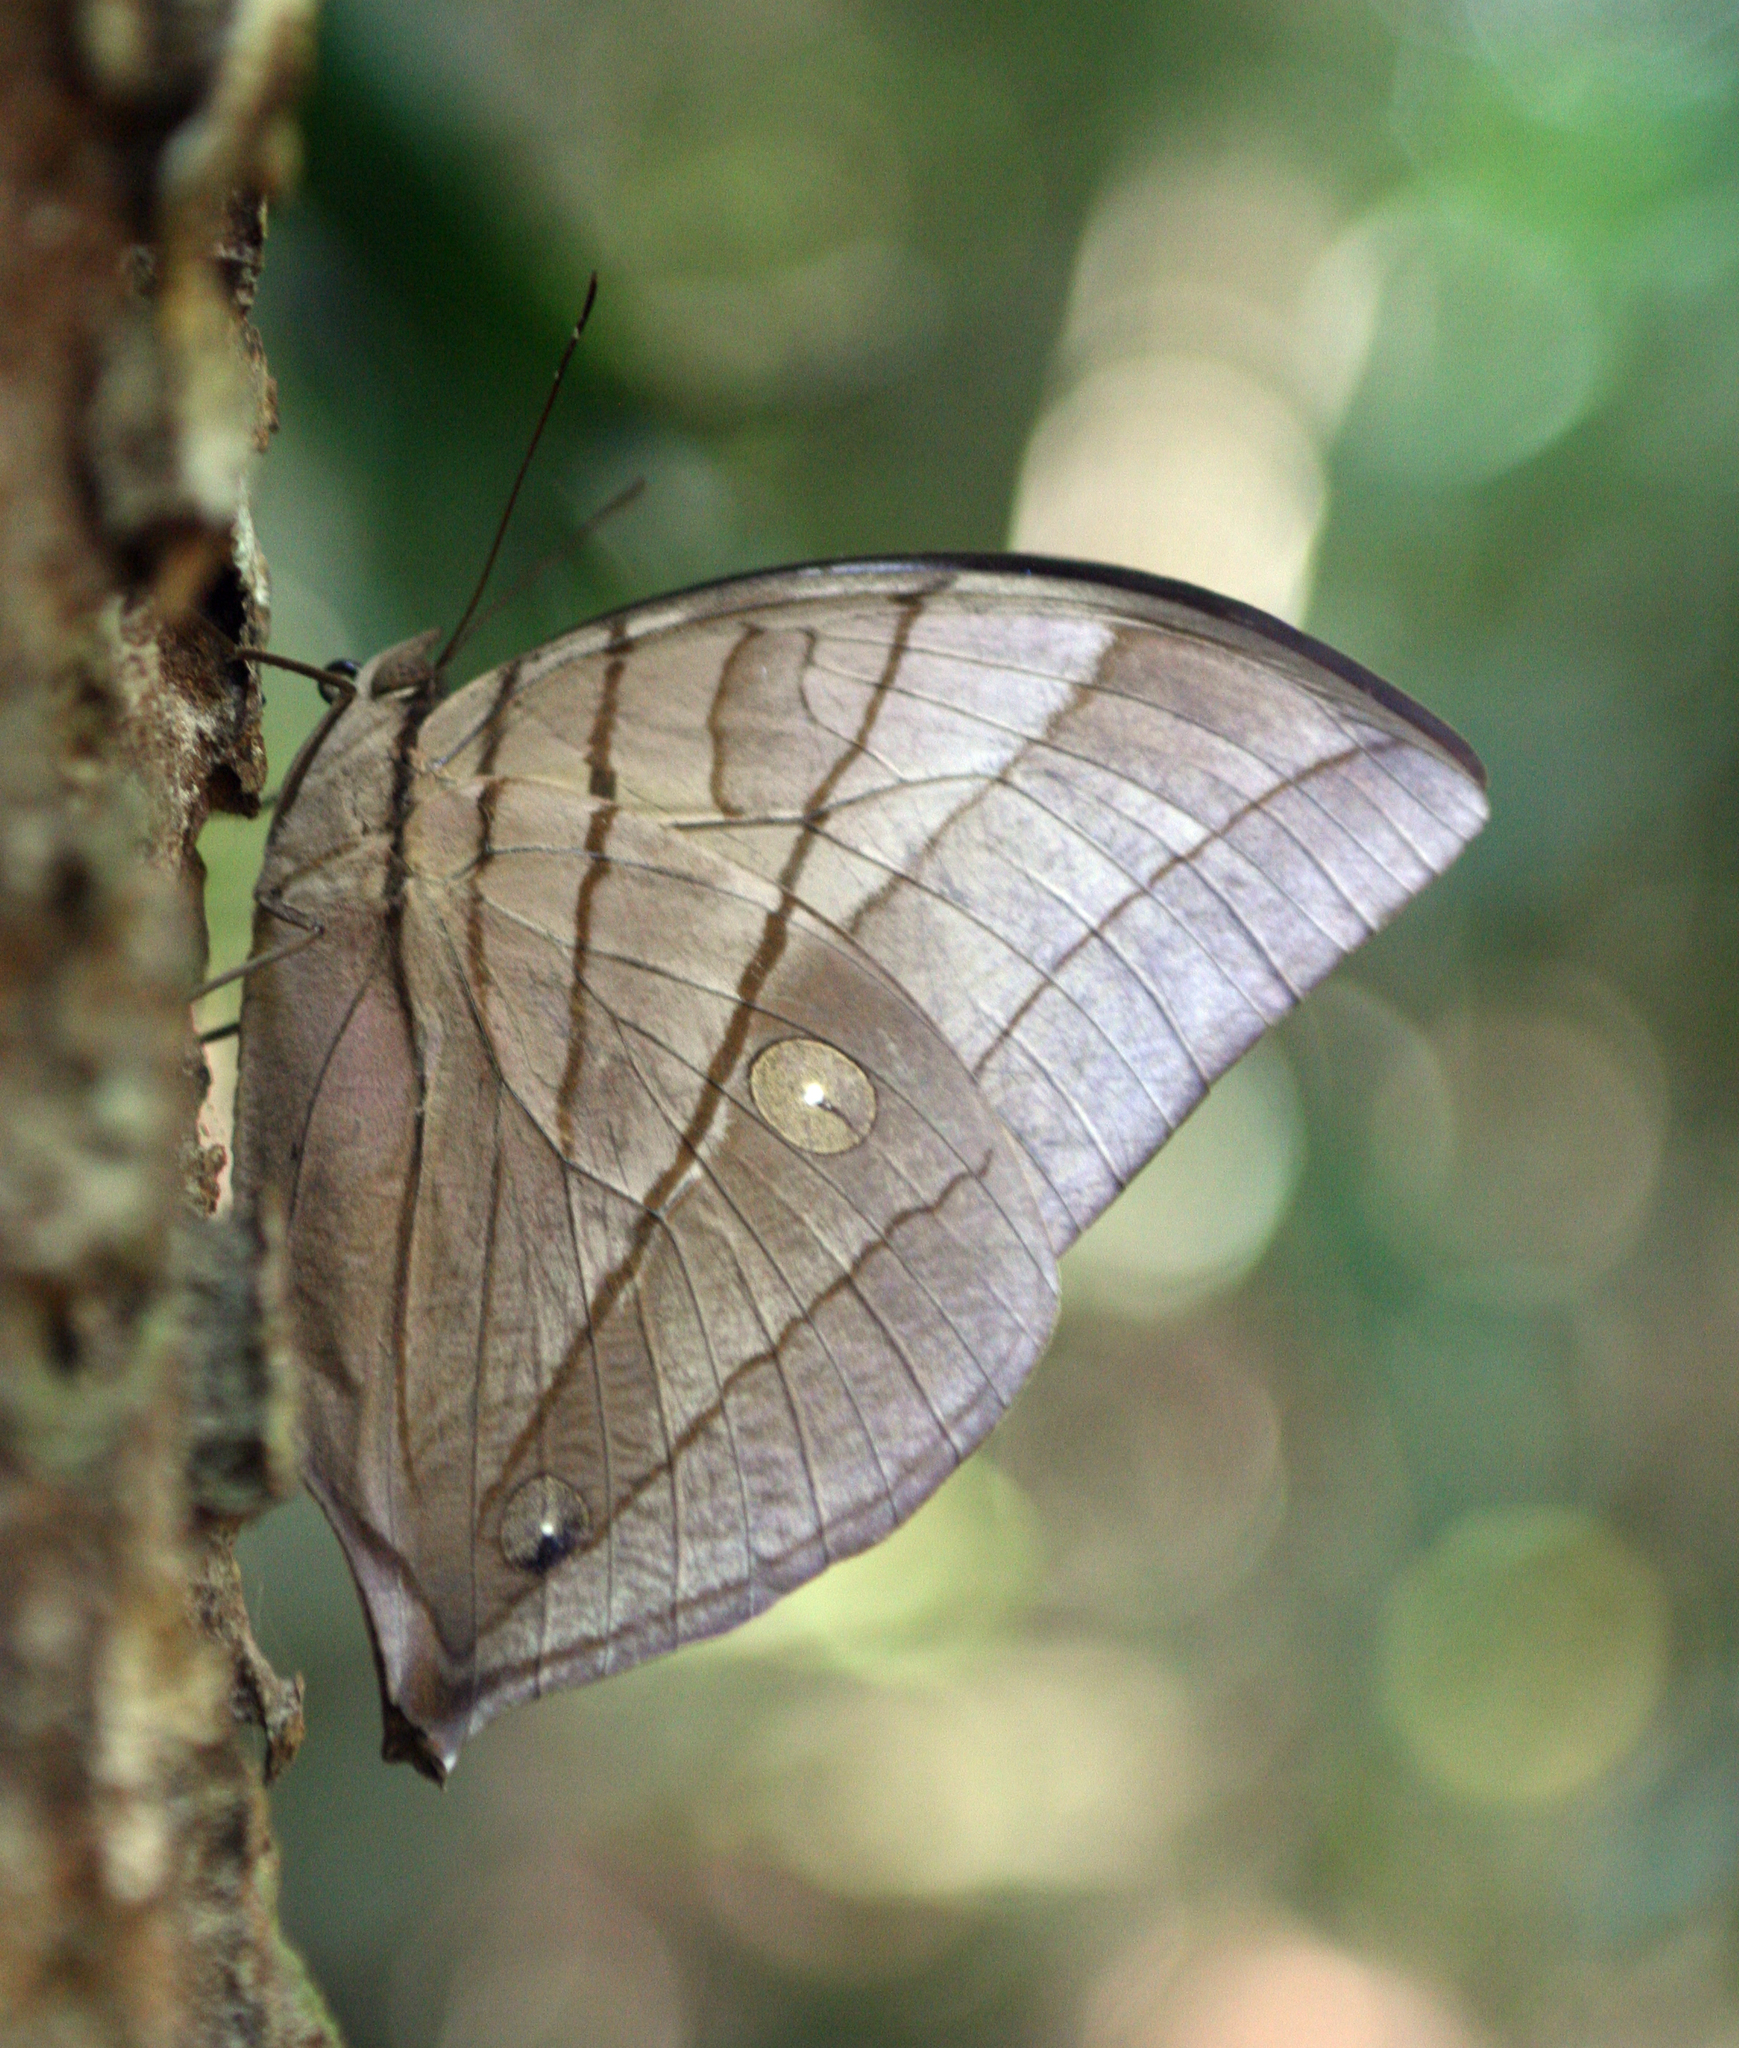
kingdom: Animalia
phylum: Arthropoda
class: Insecta
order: Lepidoptera
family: Nymphalidae
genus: Amathuxidia
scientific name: Amathuxidia amythaon
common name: Koh-i-noor
